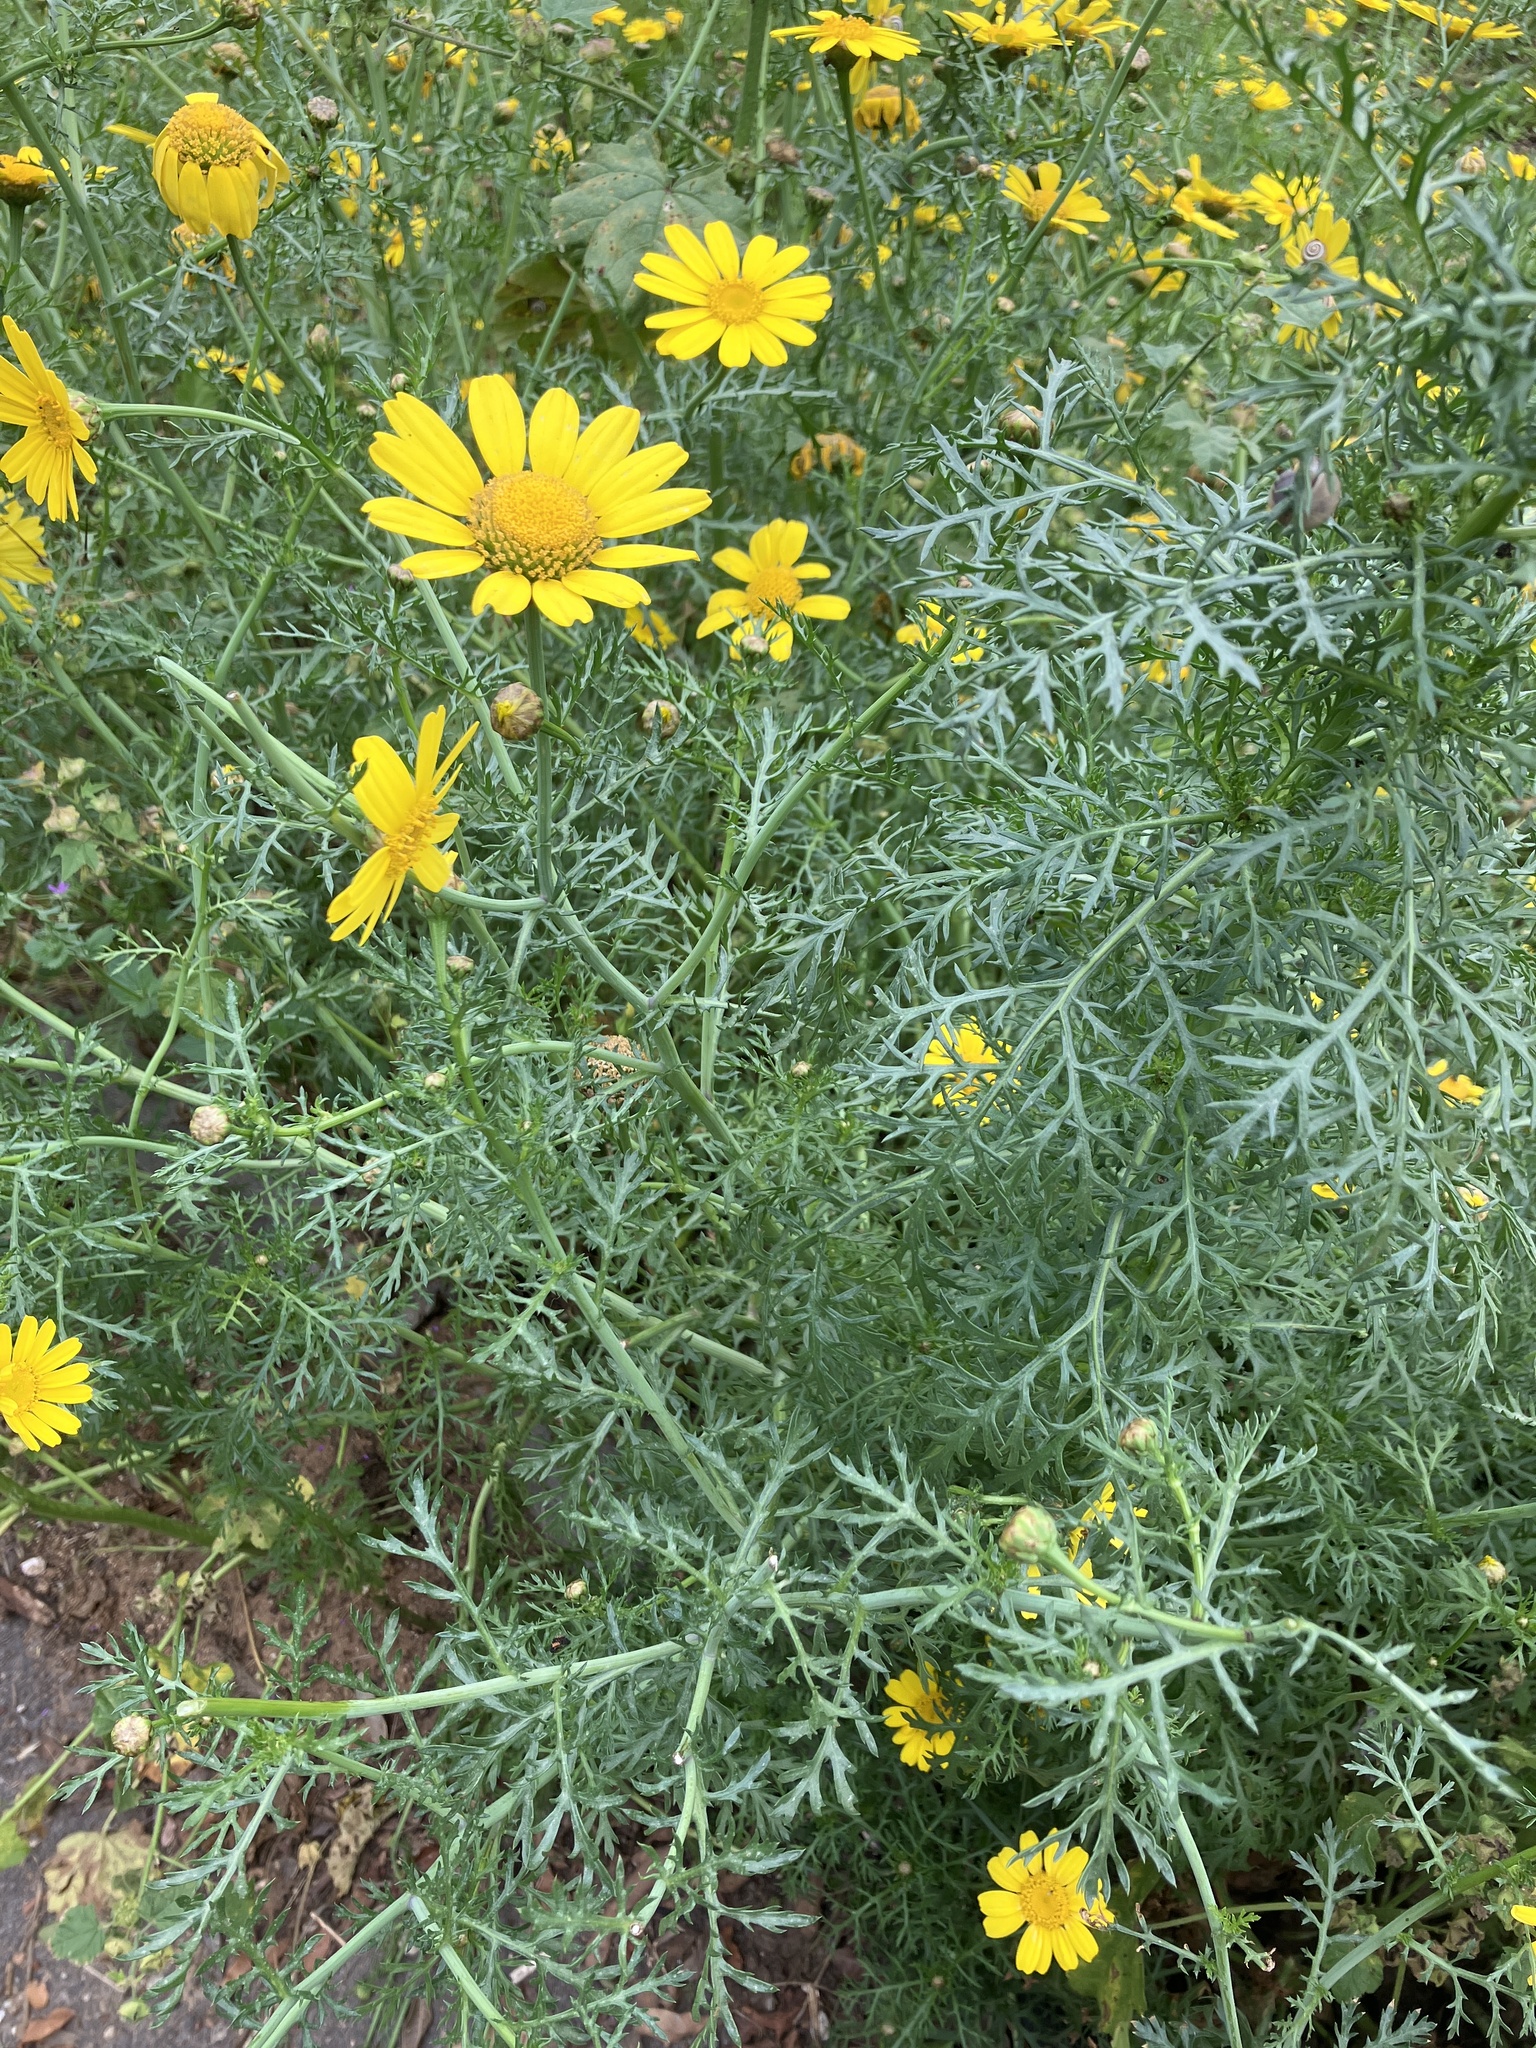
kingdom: Plantae
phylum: Tracheophyta
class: Magnoliopsida
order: Asterales
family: Asteraceae
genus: Glebionis
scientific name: Glebionis coronaria
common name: Crowndaisy
